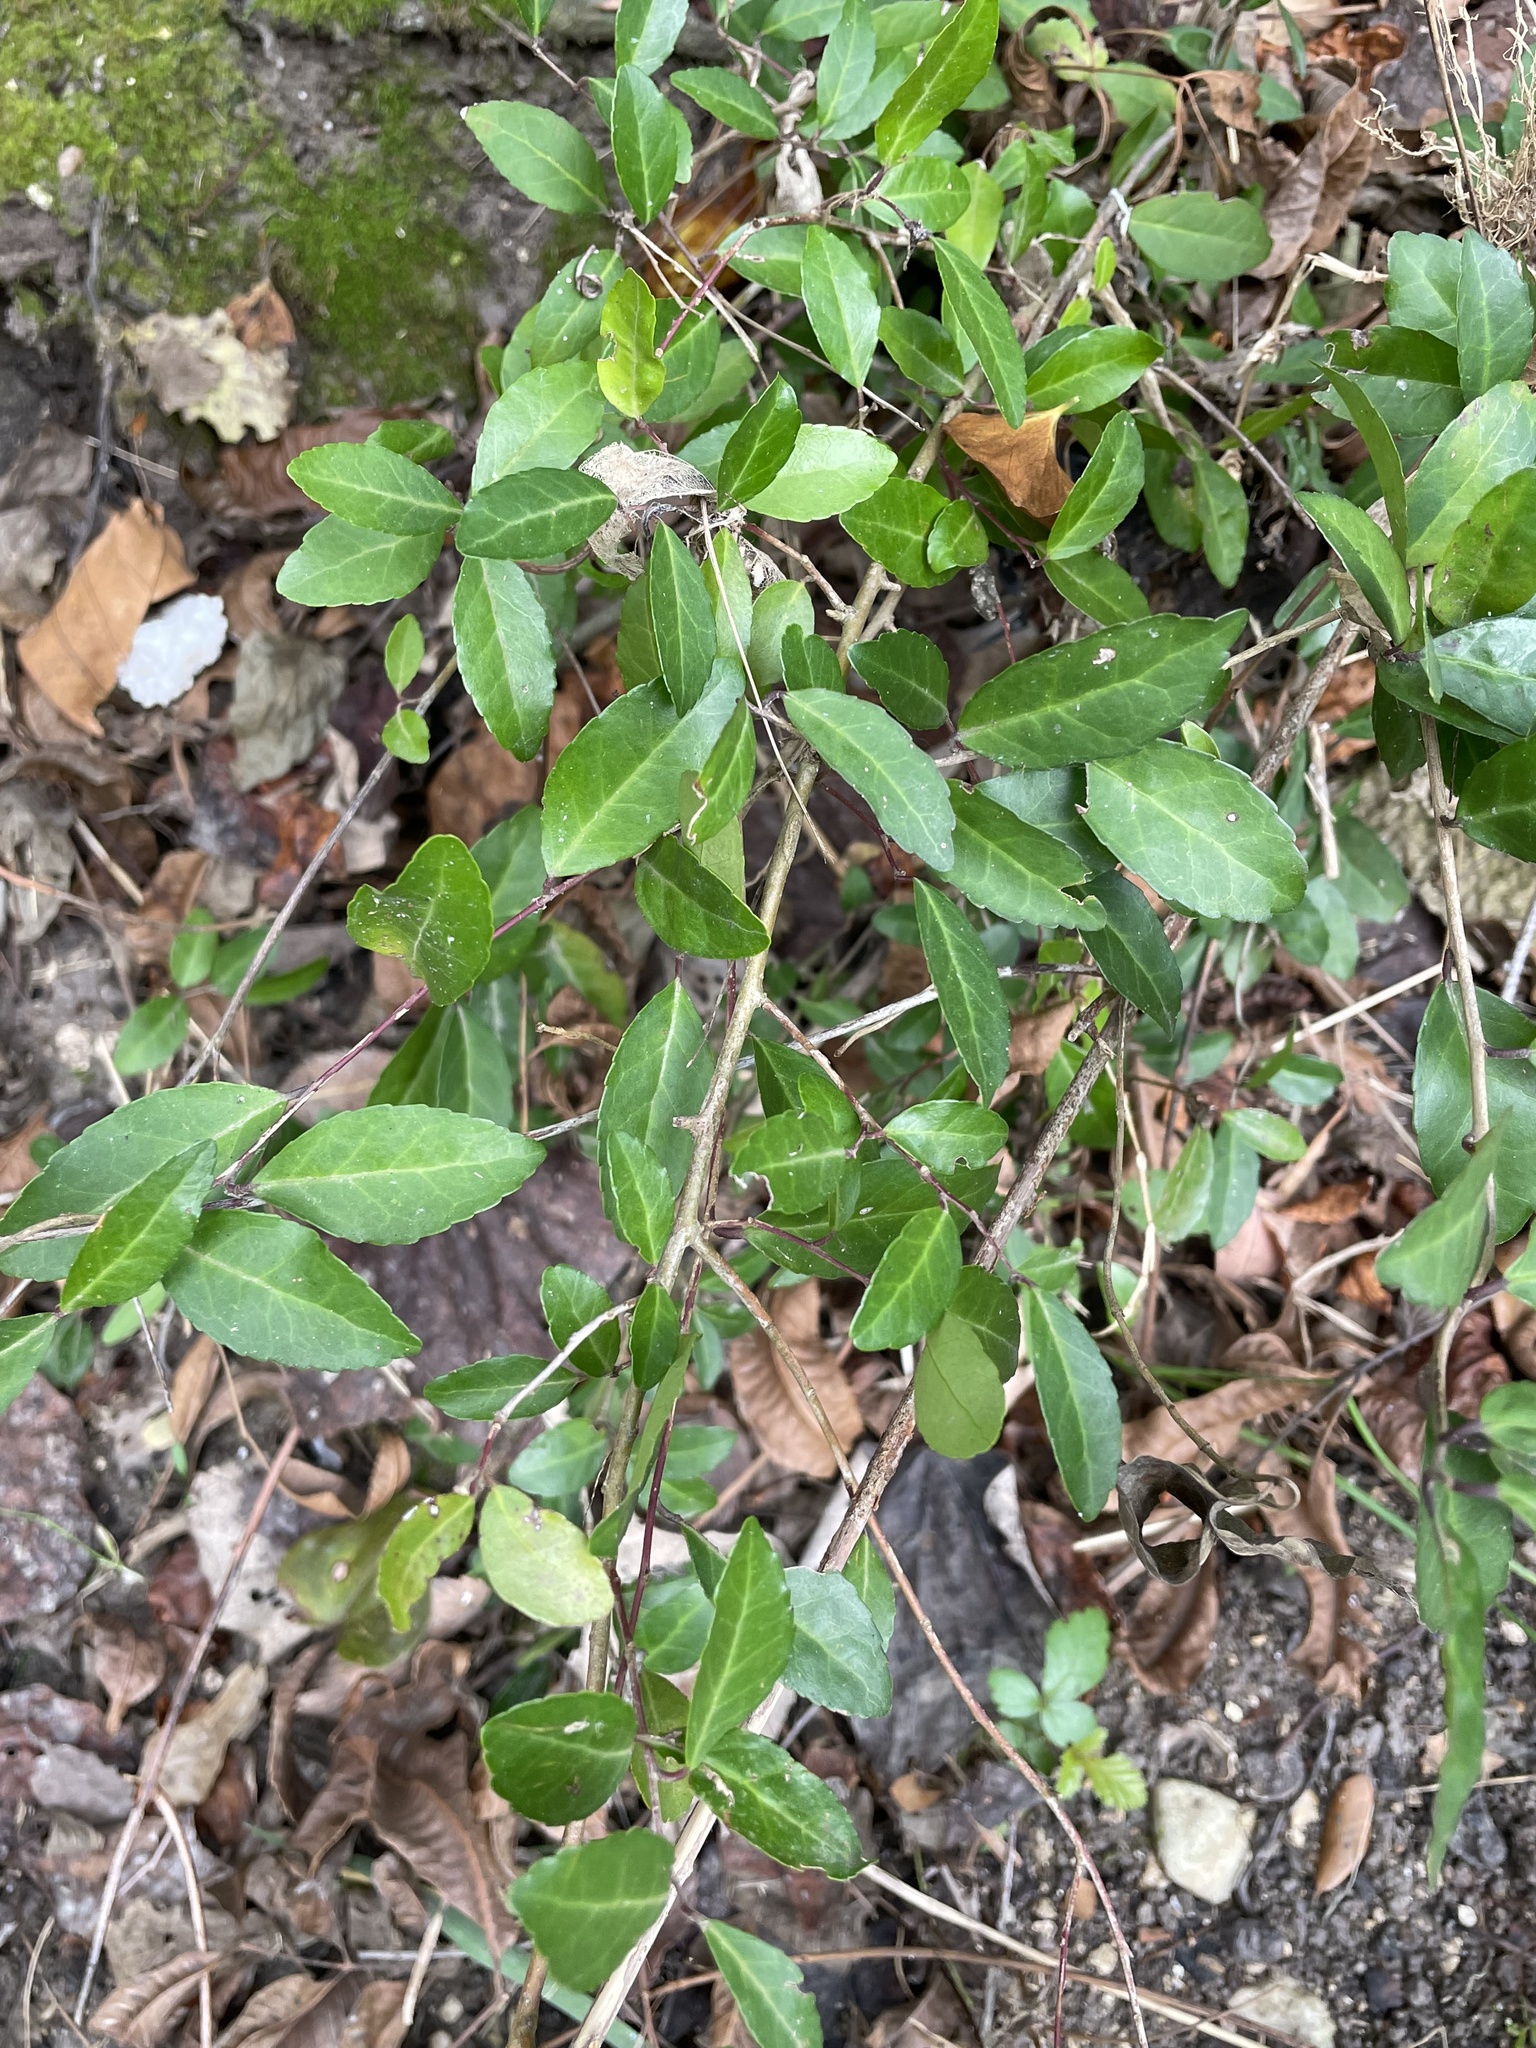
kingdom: Plantae
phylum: Tracheophyta
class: Magnoliopsida
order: Aquifoliales
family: Aquifoliaceae
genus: Ilex
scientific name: Ilex vomitoria
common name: Yaupon holly
